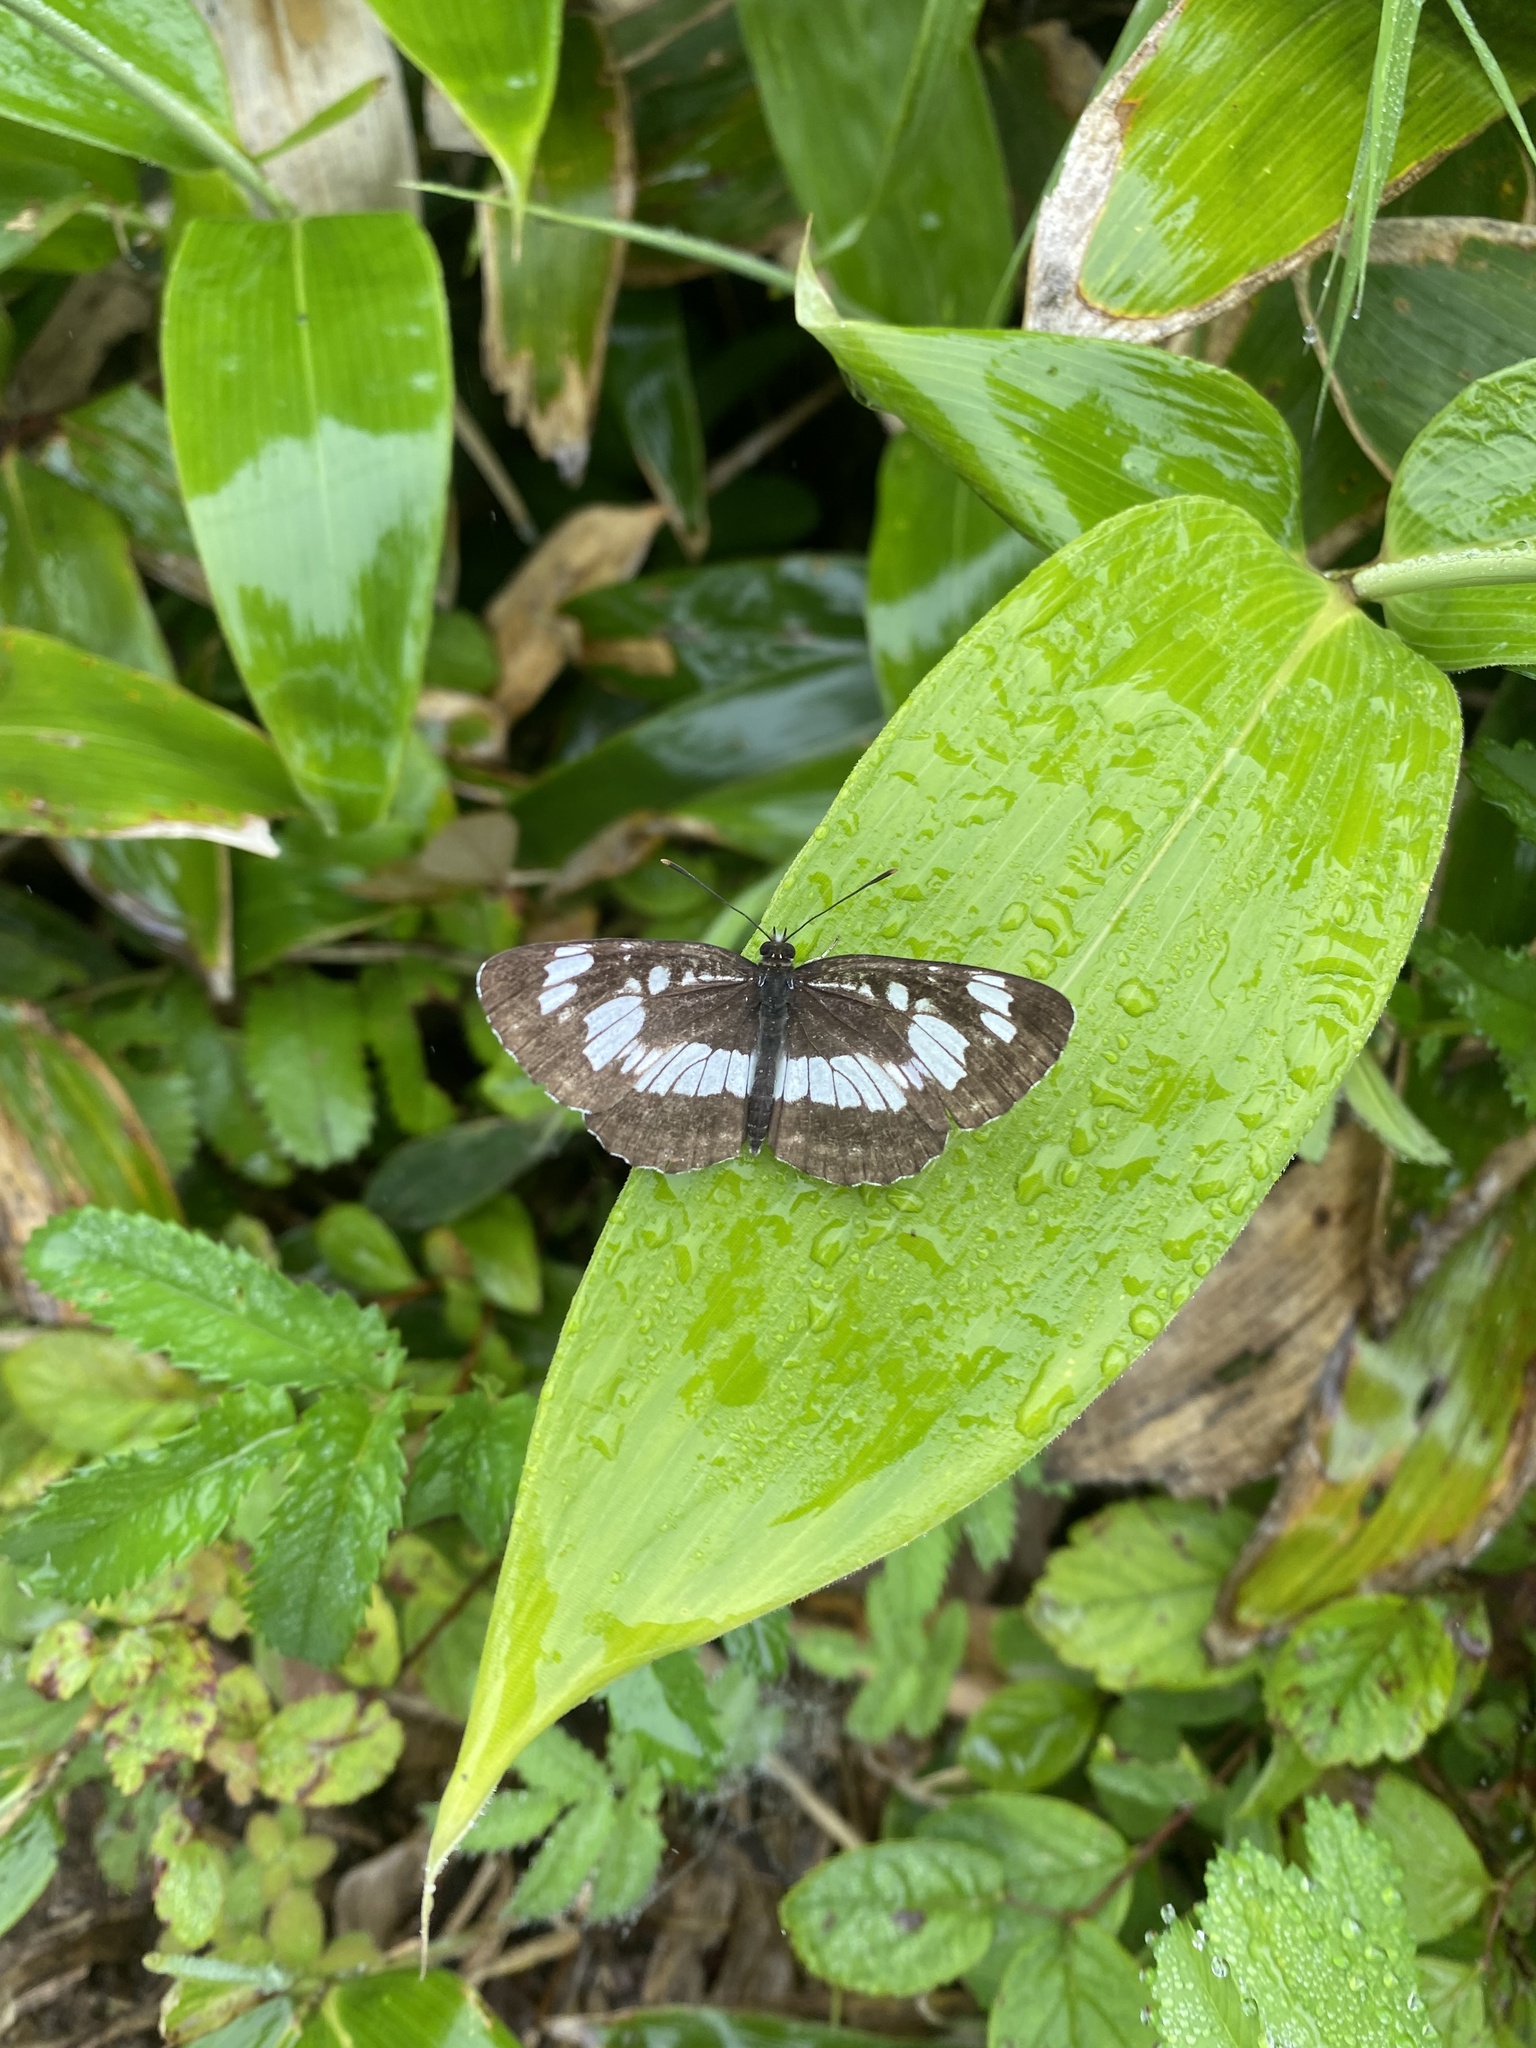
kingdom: Animalia
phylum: Arthropoda
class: Insecta
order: Lepidoptera
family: Nymphalidae
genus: Neptis
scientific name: Neptis rivularis
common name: Hungarian glider
